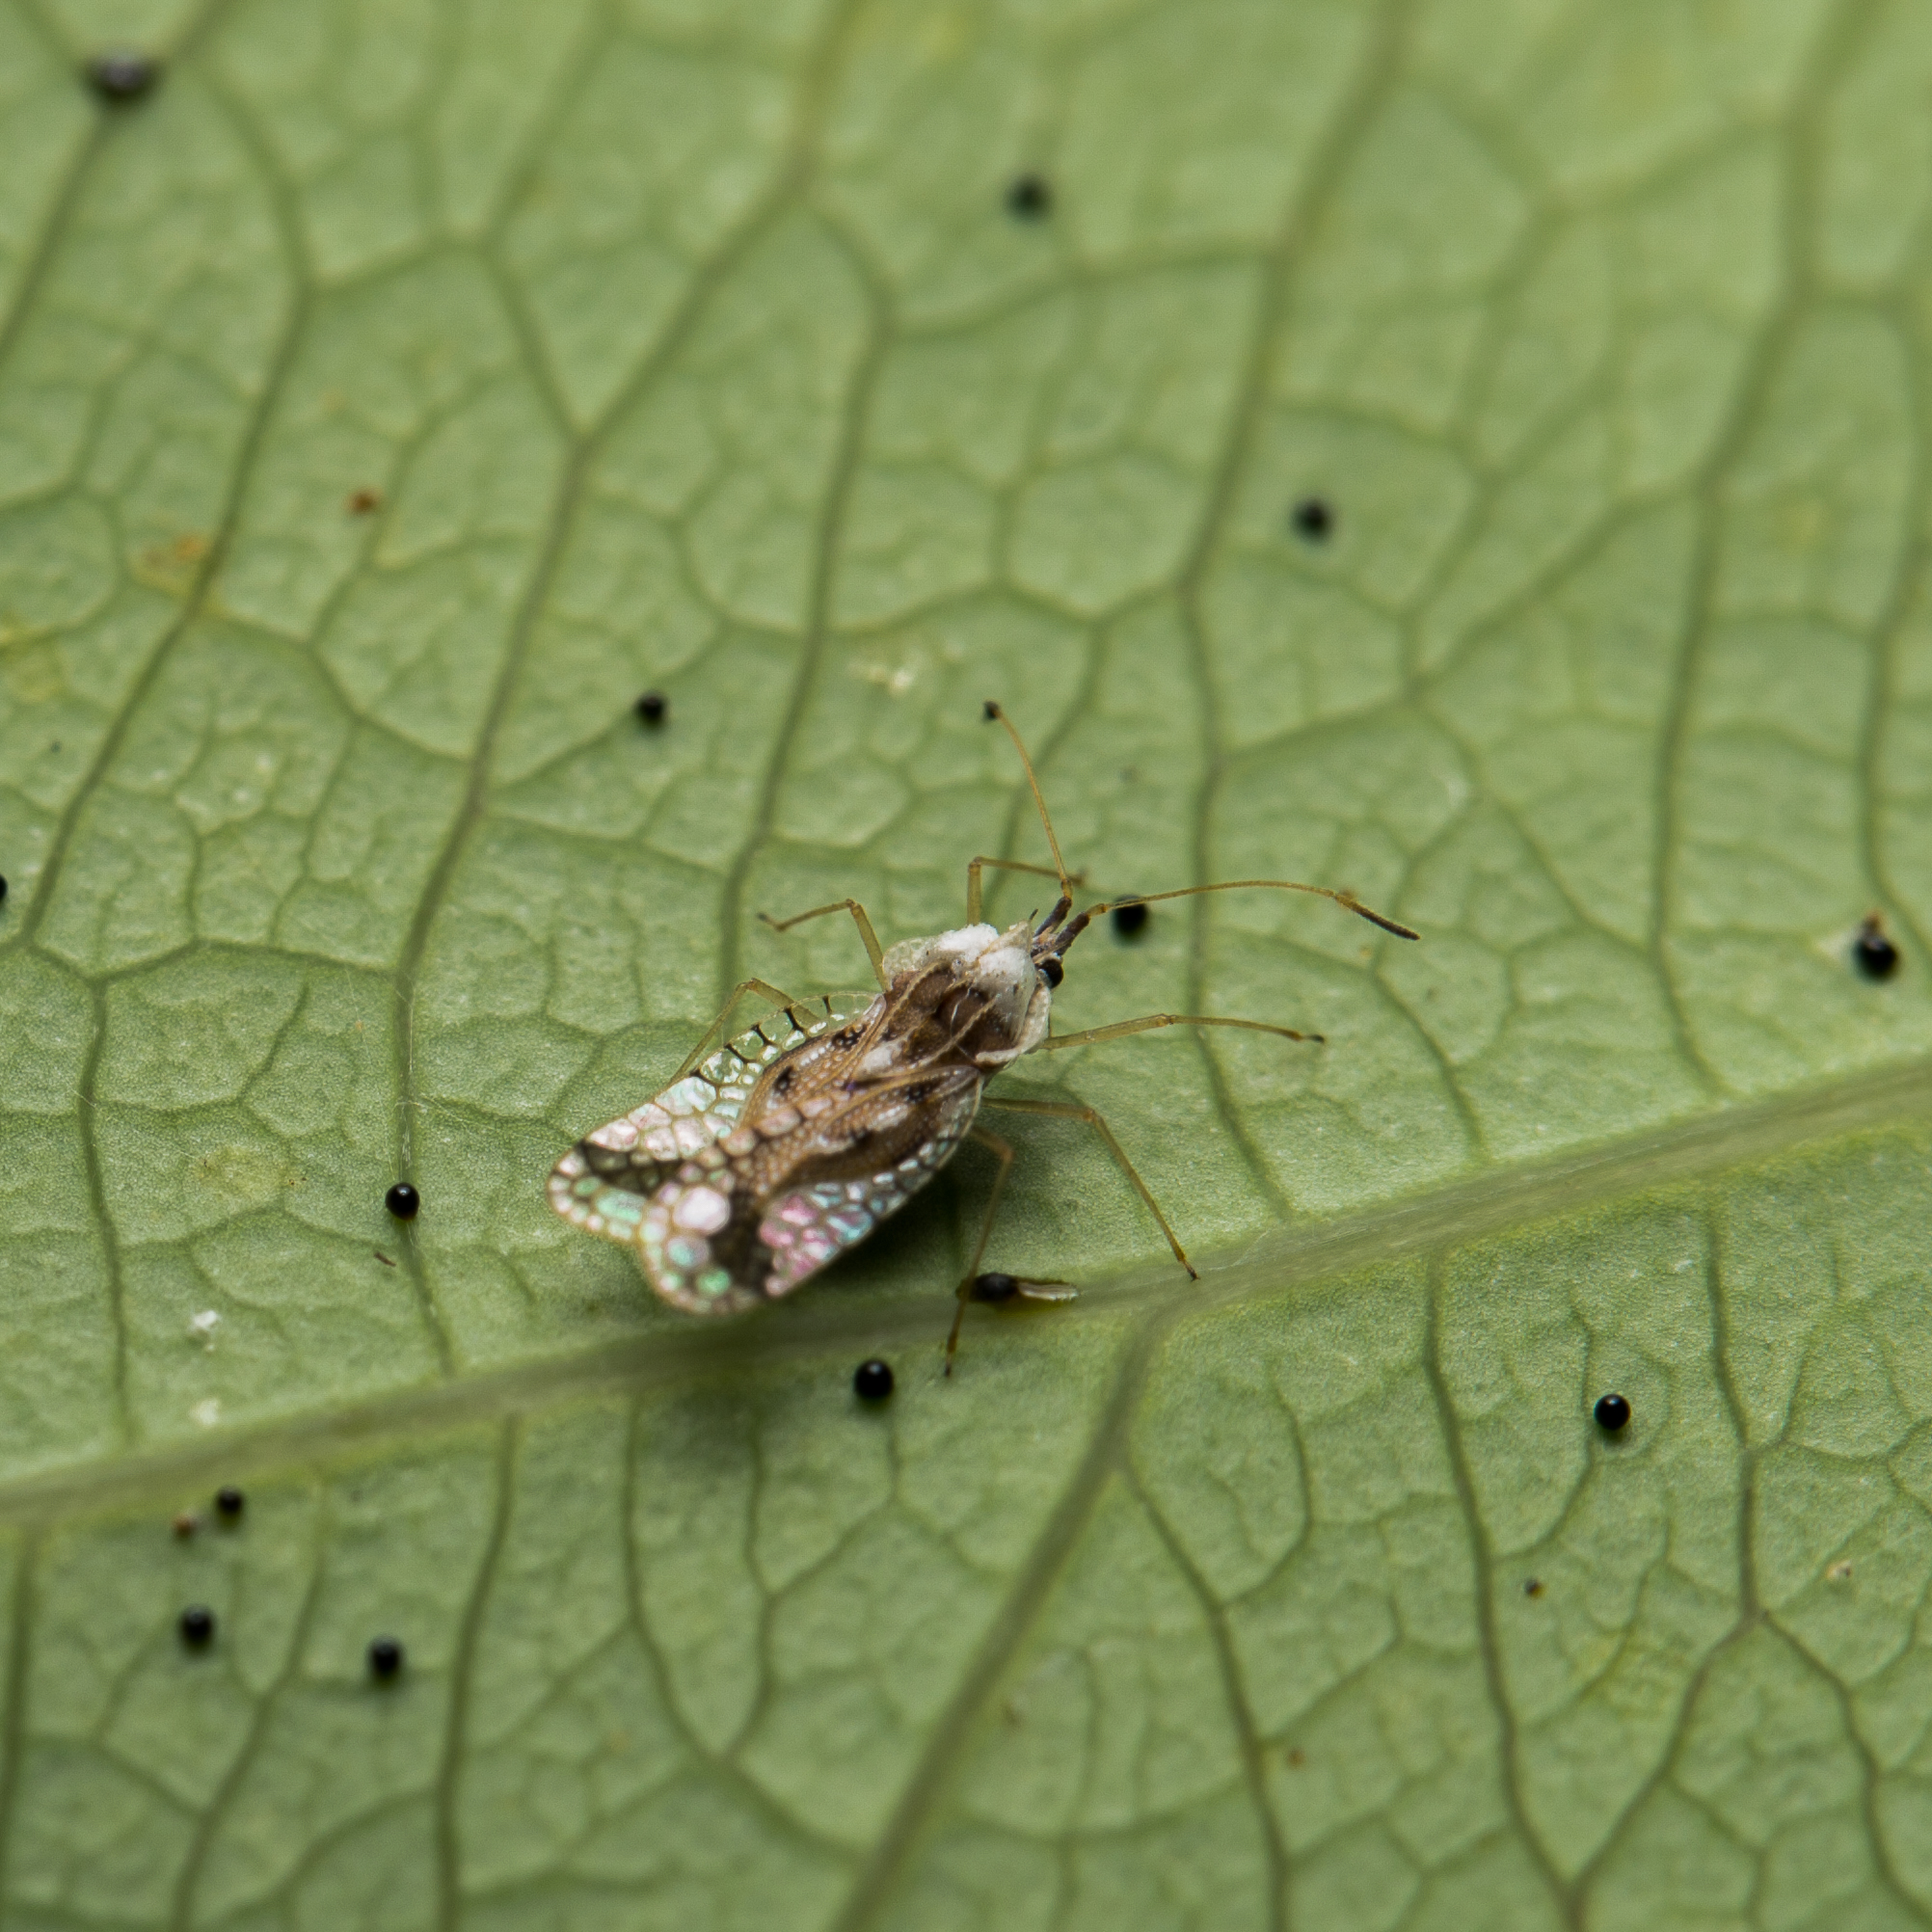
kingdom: Animalia
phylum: Arthropoda
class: Insecta
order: Hemiptera
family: Tingidae
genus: Gargaphia
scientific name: Gargaphia lunulata
